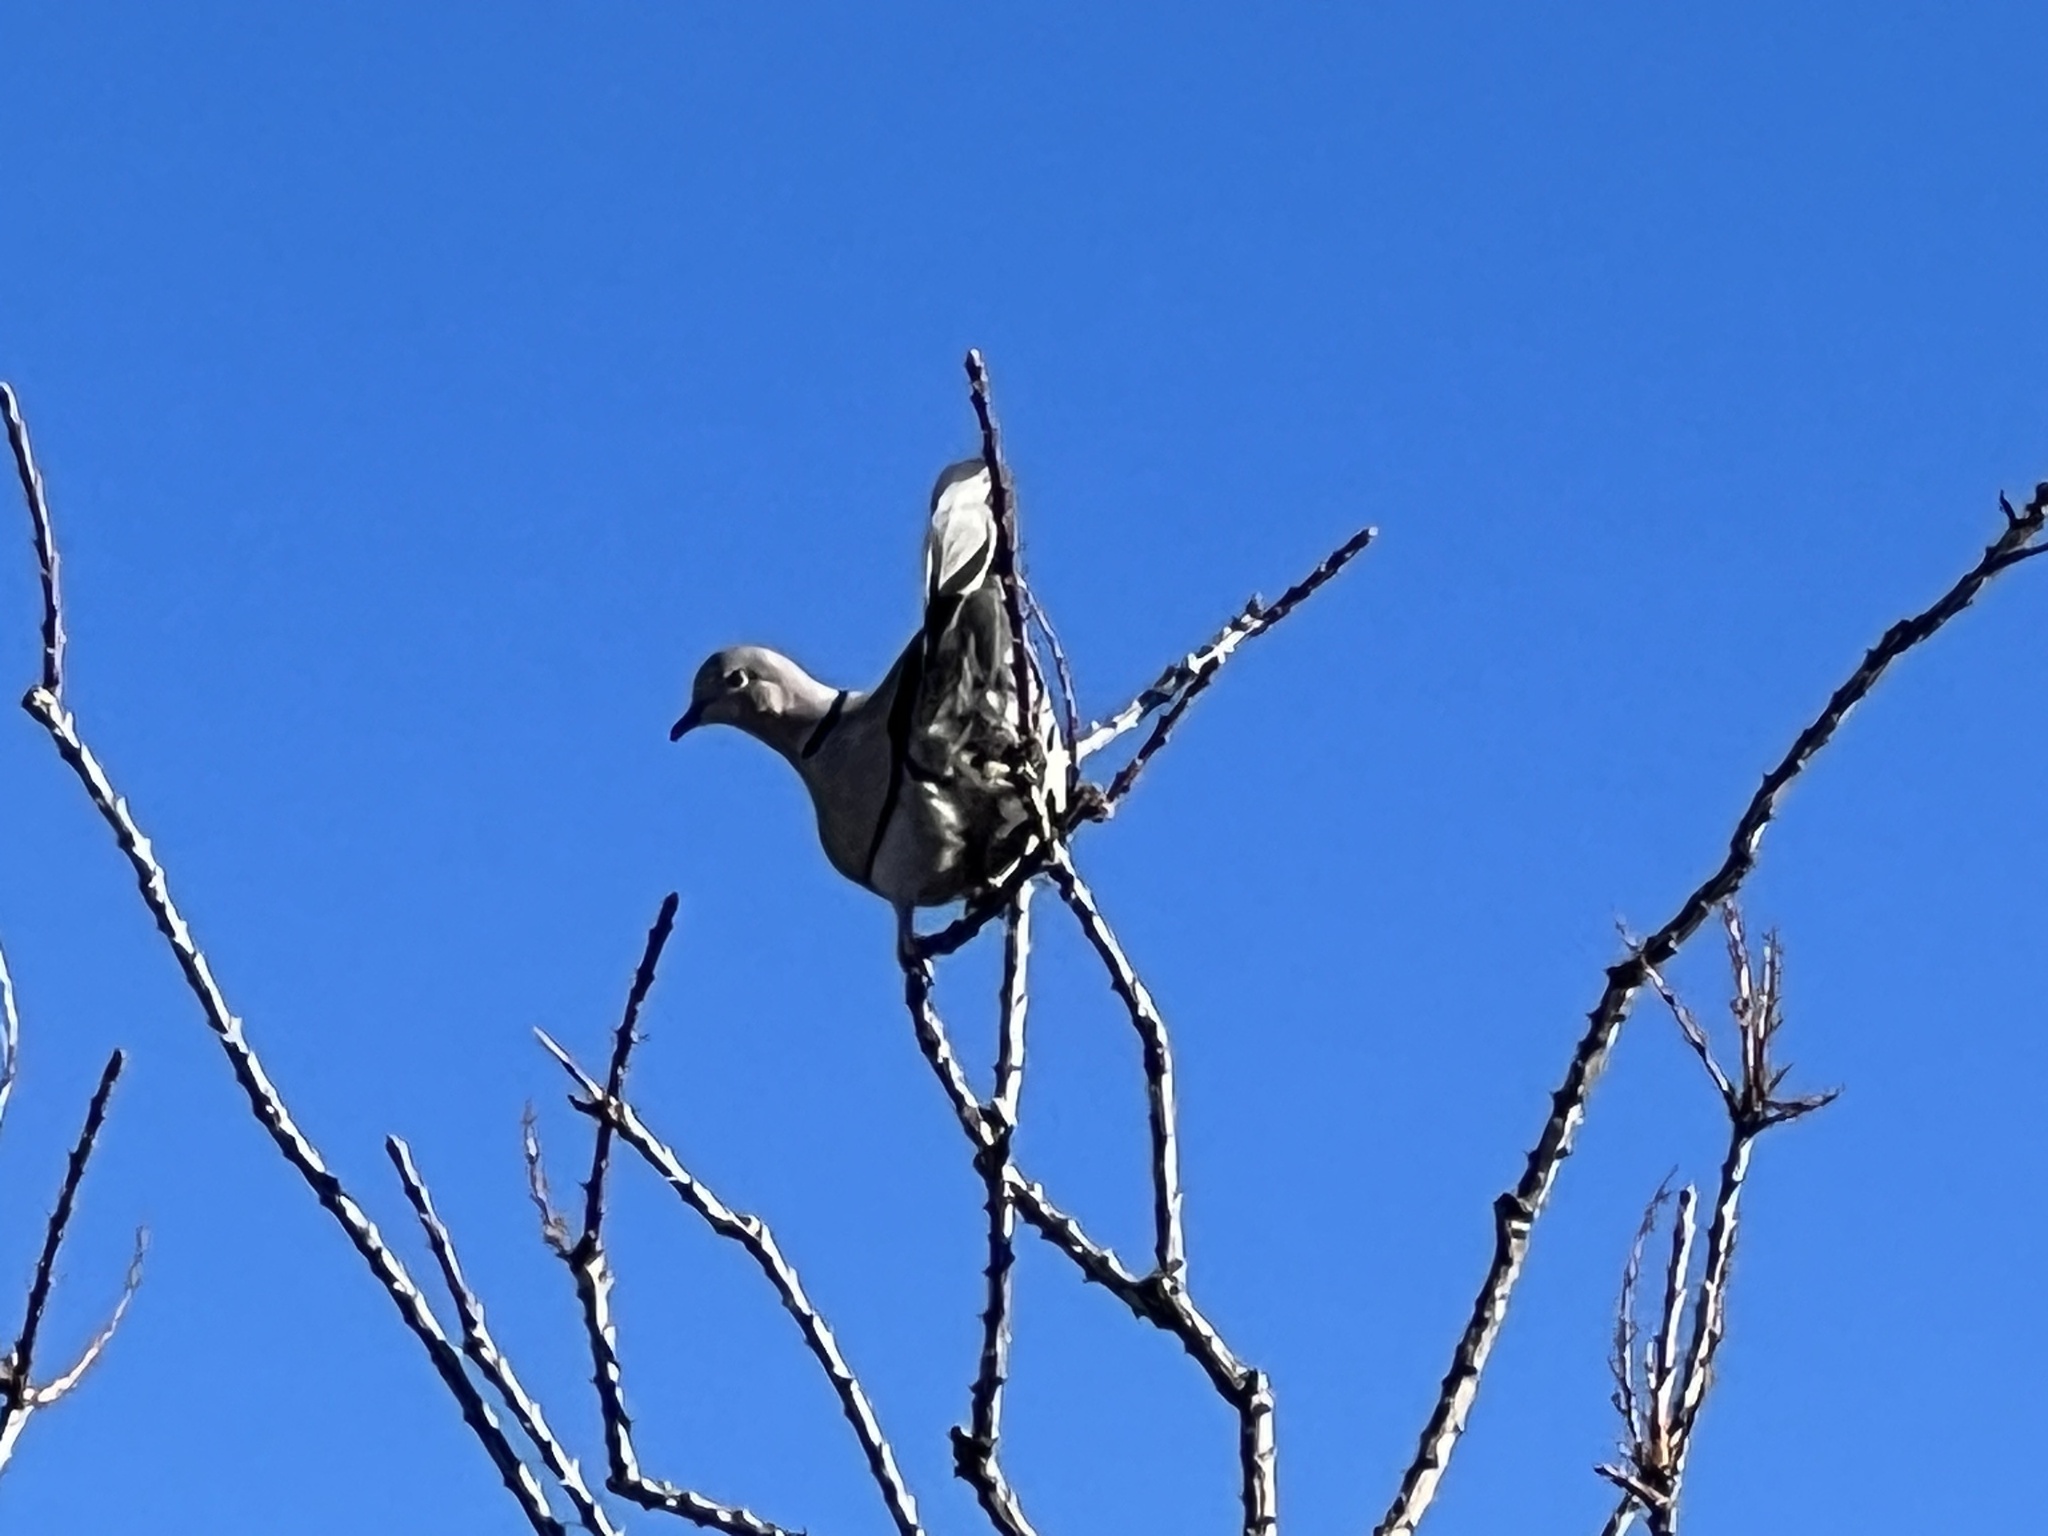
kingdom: Animalia
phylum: Chordata
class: Aves
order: Columbiformes
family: Columbidae
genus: Streptopelia
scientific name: Streptopelia decaocto
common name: Eurasian collared dove
